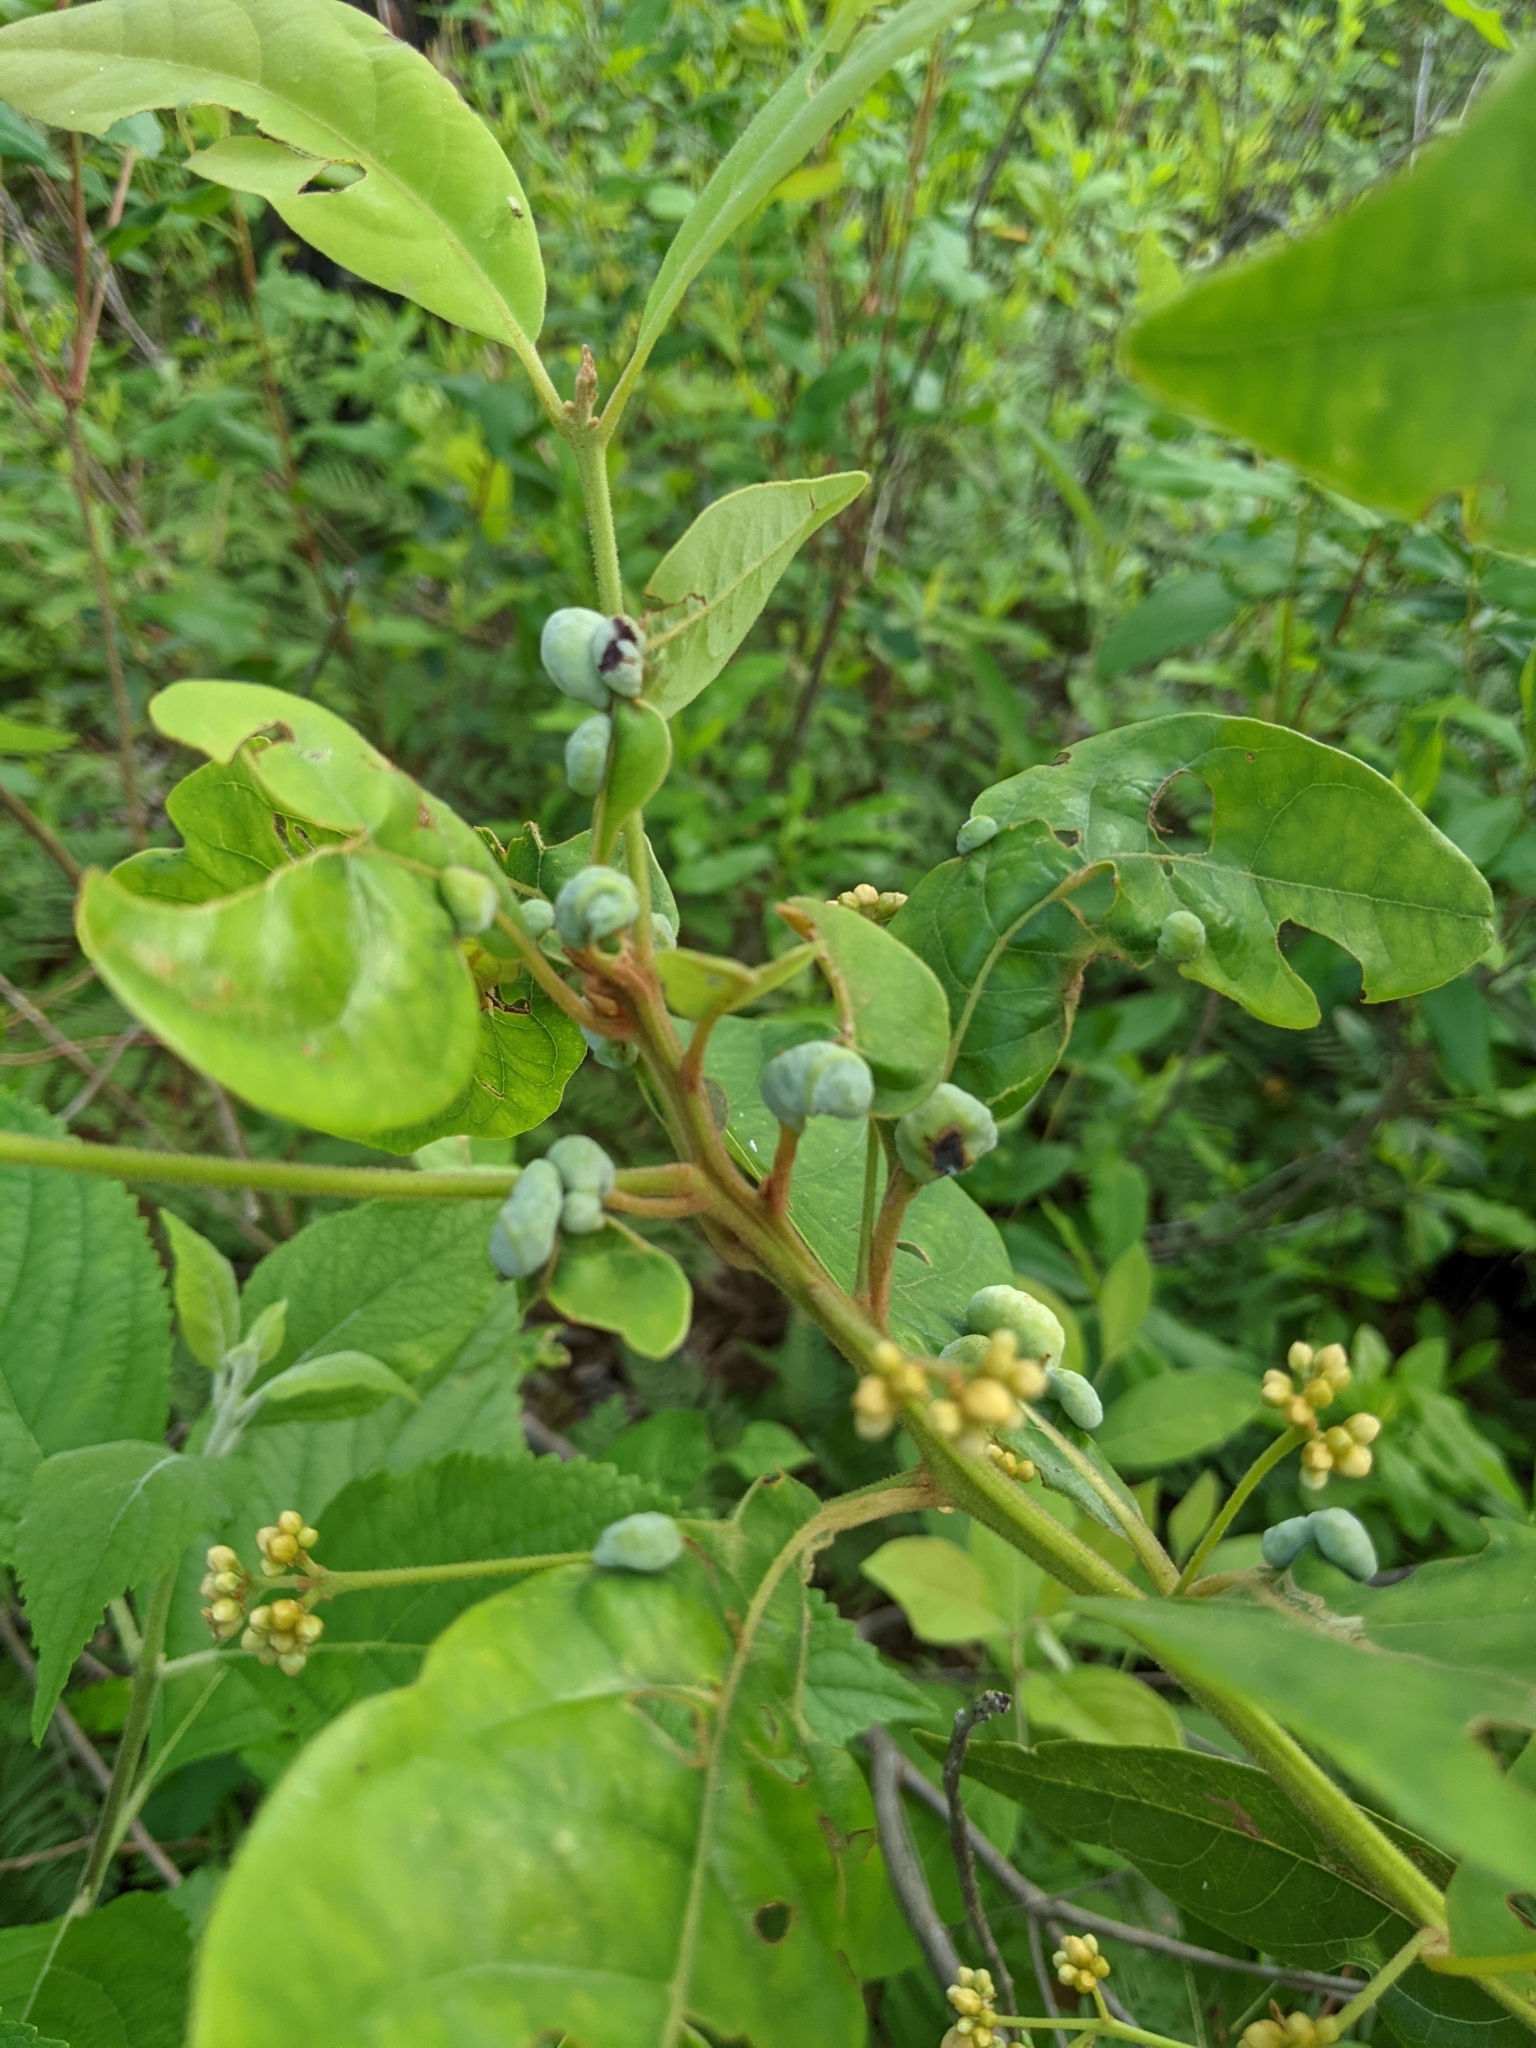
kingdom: Animalia
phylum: Arthropoda
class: Insecta
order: Hemiptera
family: Triozidae
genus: Trioza
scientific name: Trioza magnoliae
